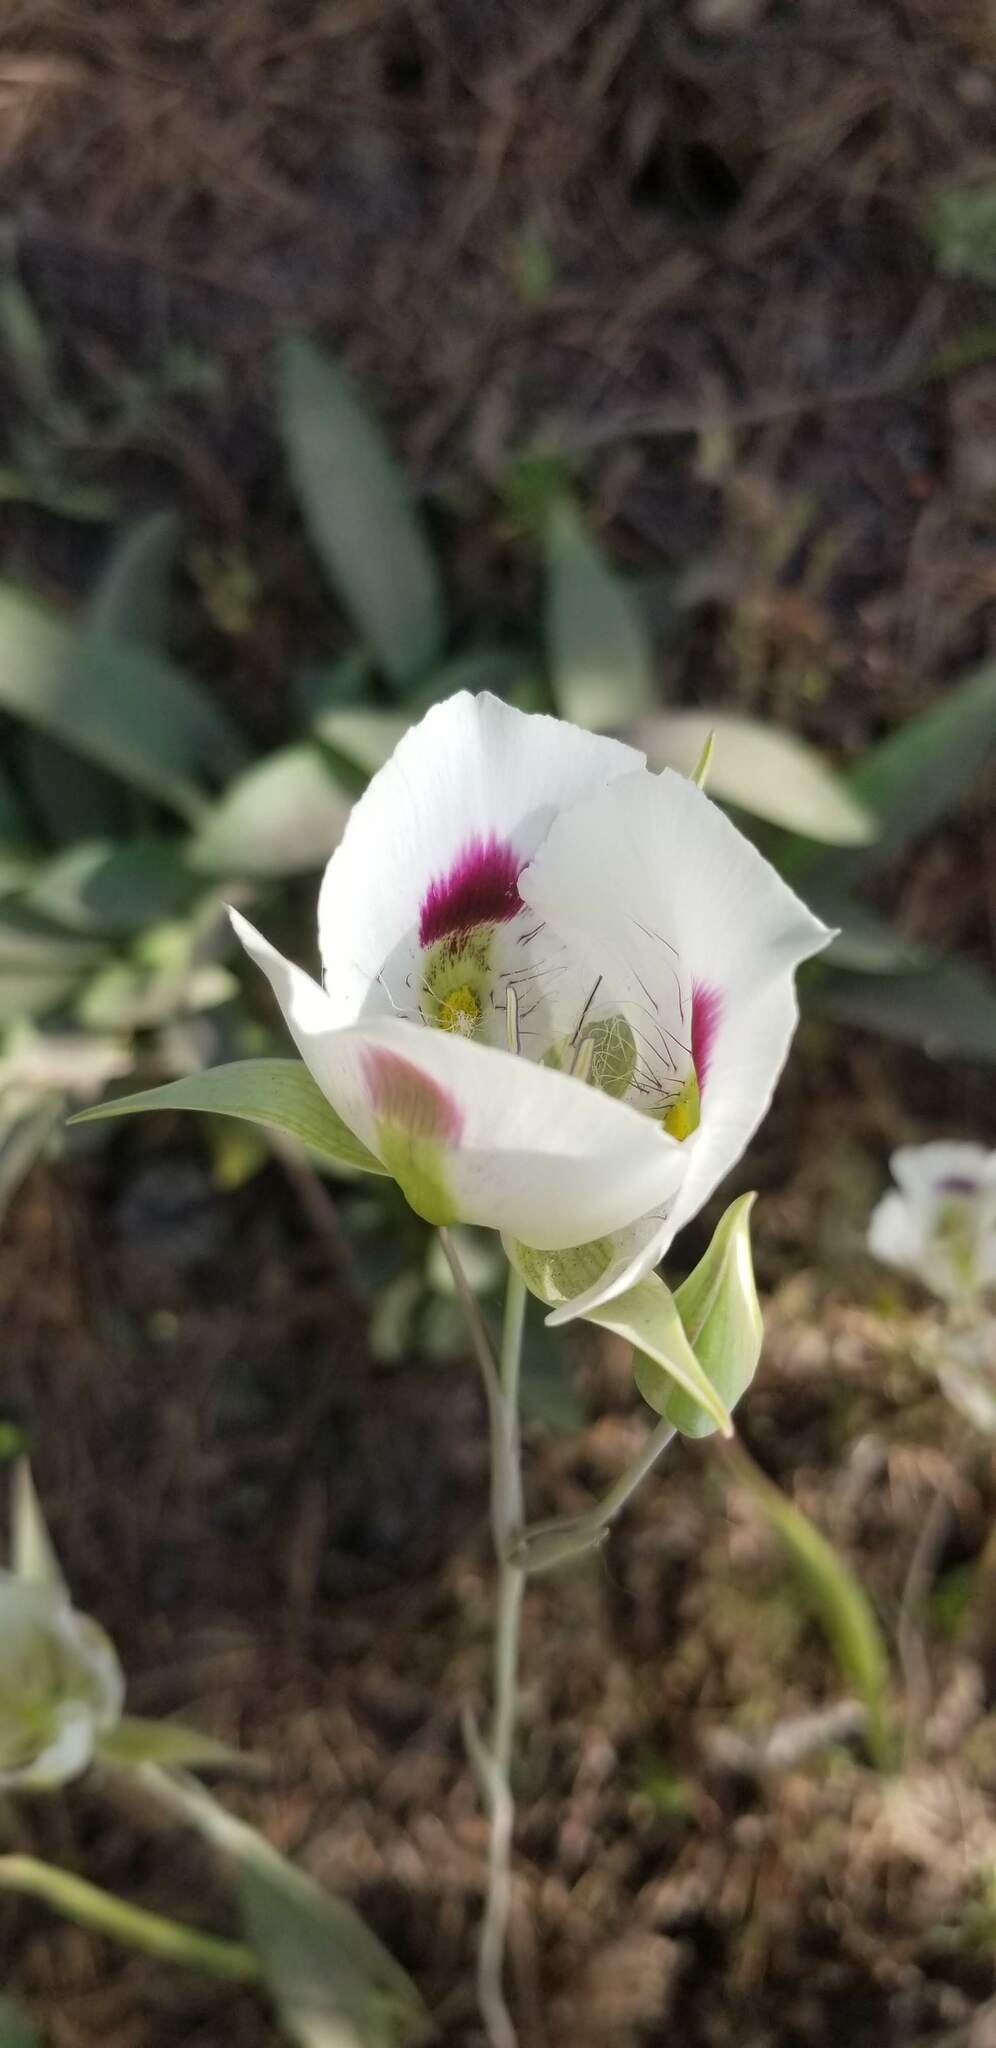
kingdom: Plantae
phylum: Tracheophyta
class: Liliopsida
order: Liliales
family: Liliaceae
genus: Calochortus
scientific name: Calochortus eurycarpus
